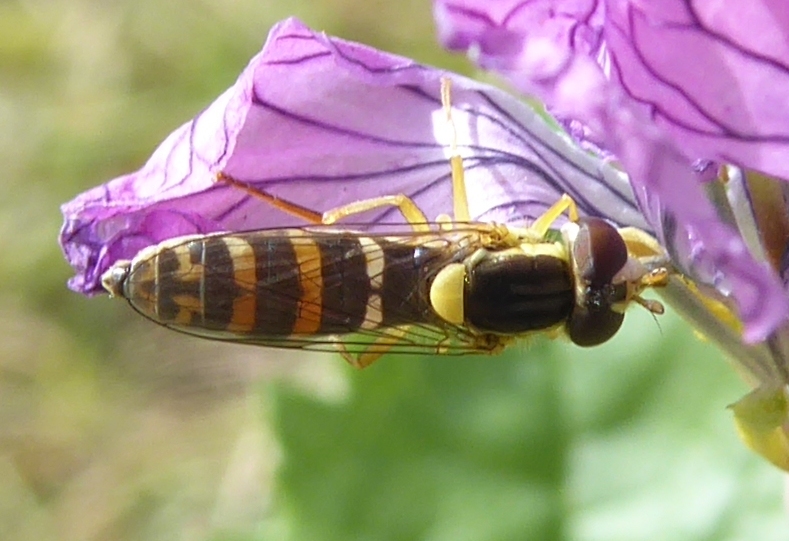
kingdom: Animalia
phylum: Arthropoda
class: Insecta
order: Diptera
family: Syrphidae
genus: Sphaerophoria
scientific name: Sphaerophoria
